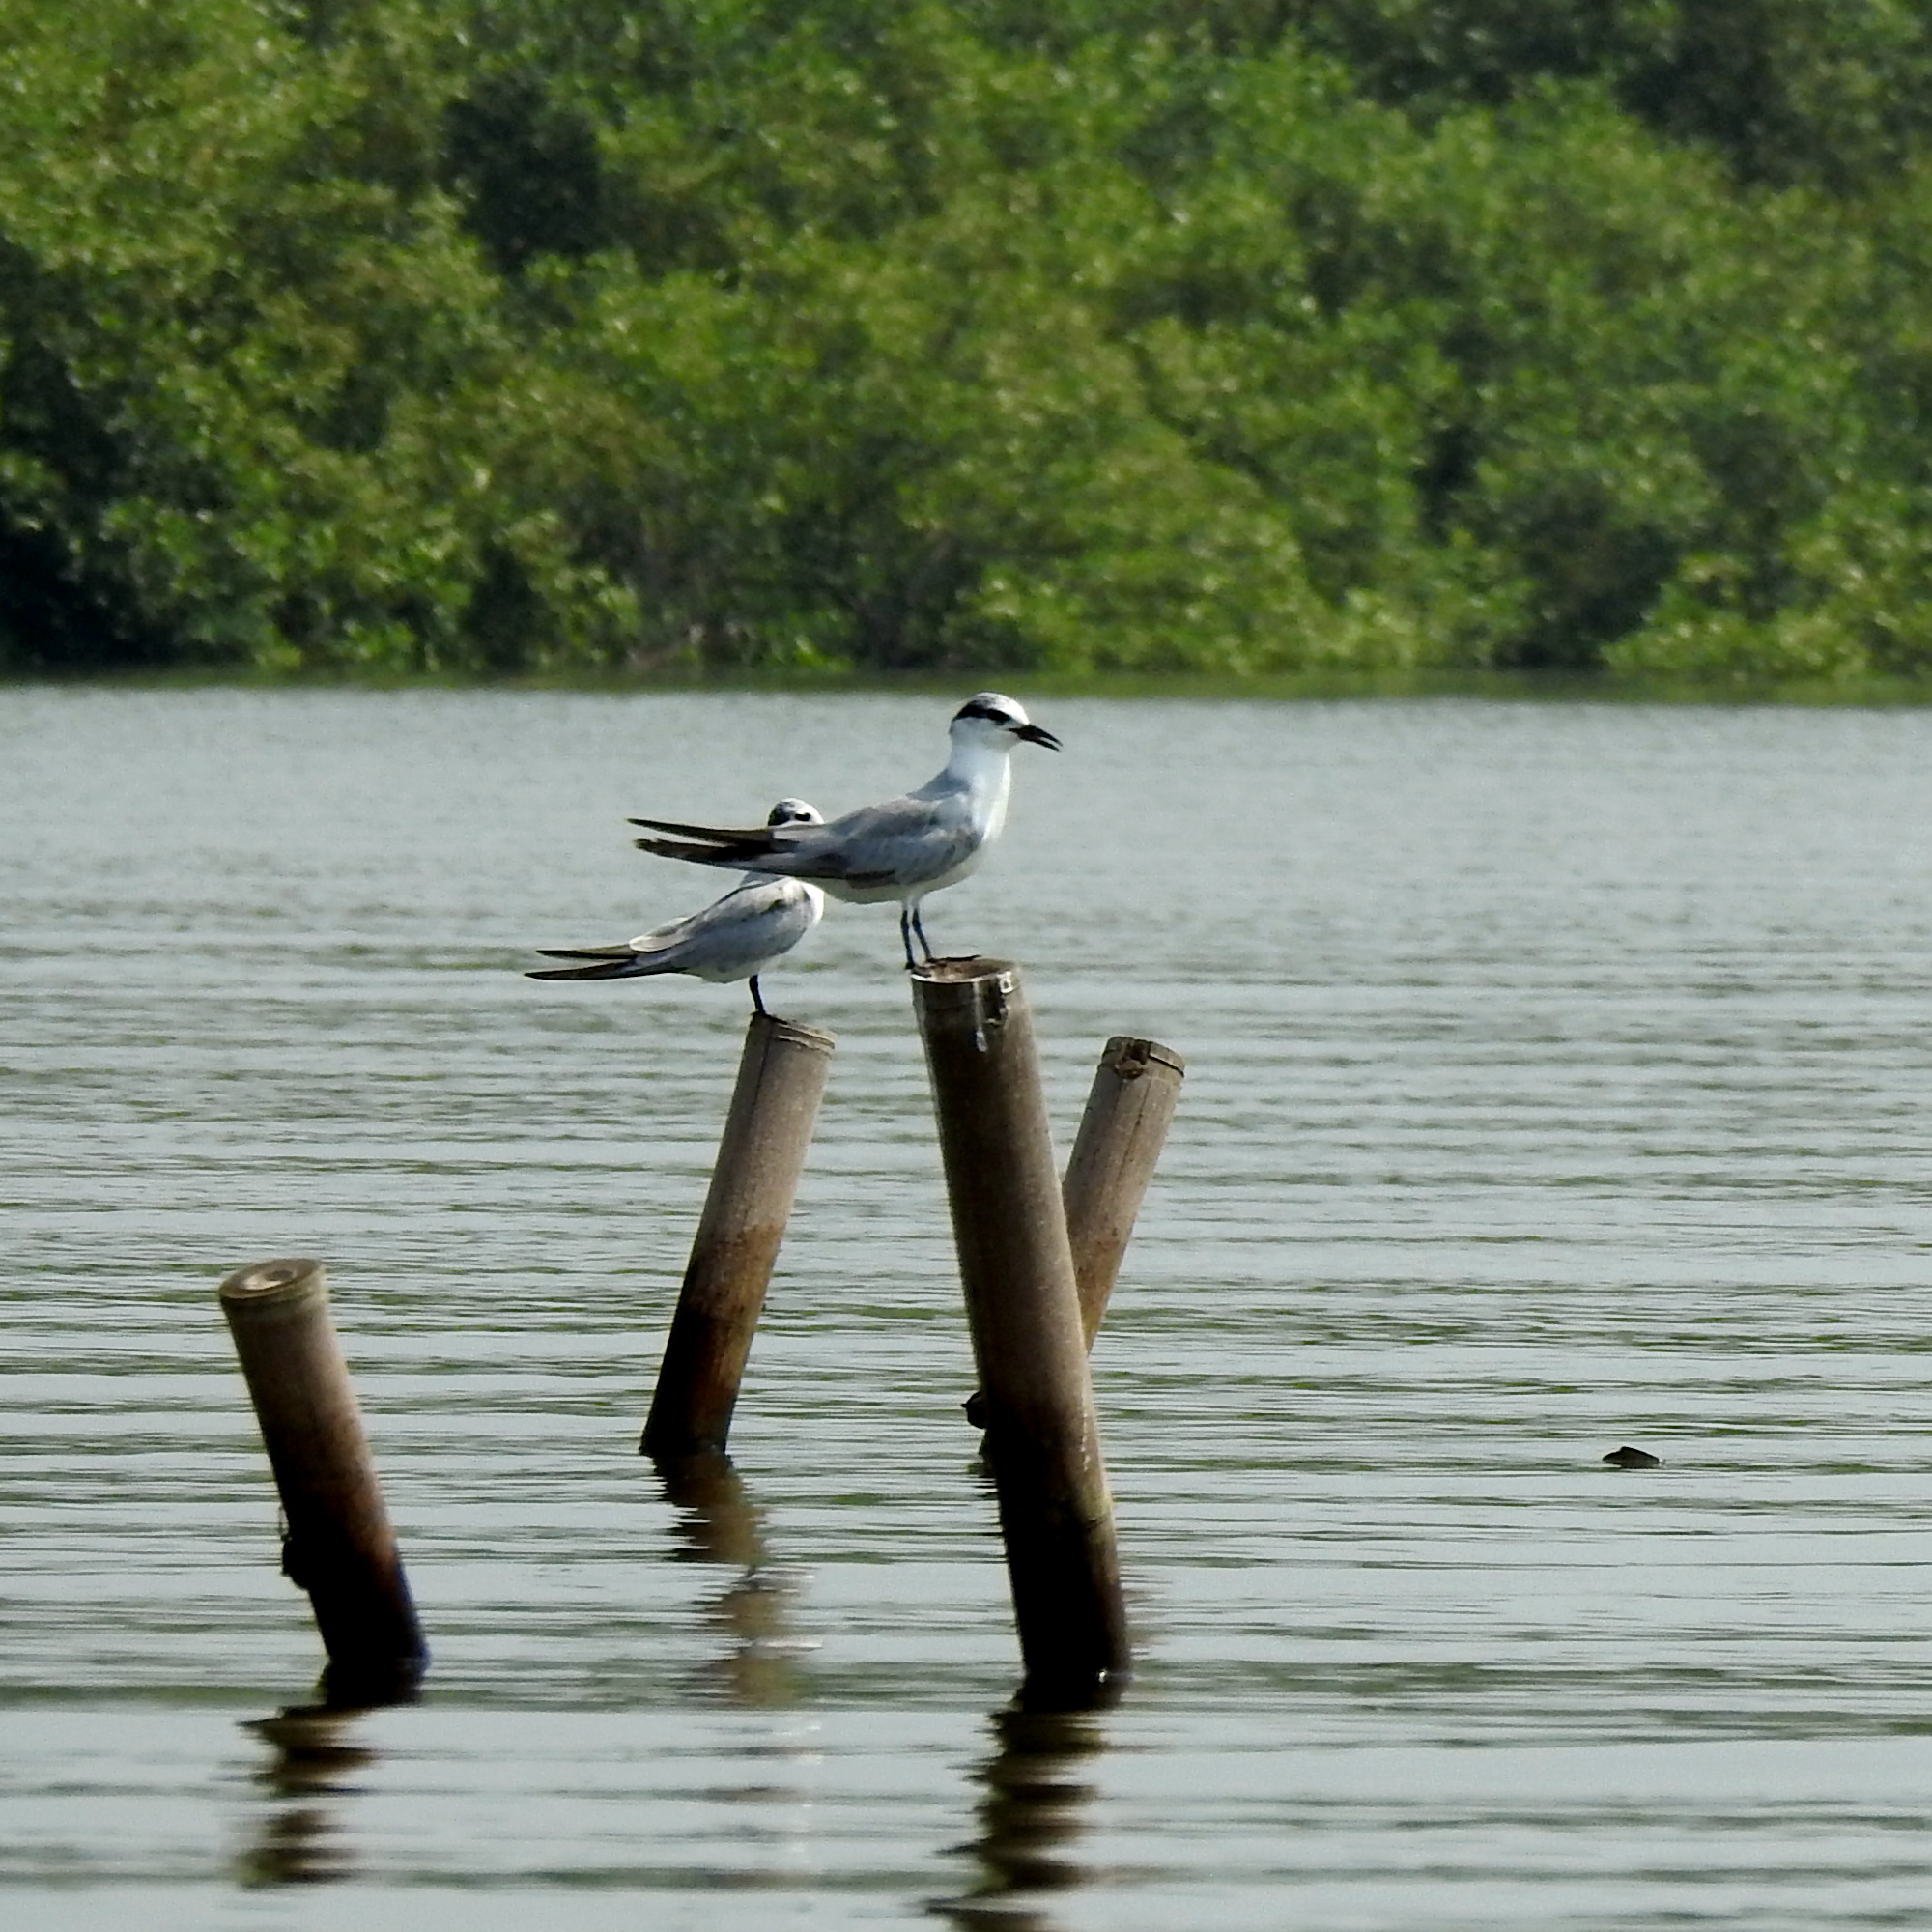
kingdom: Animalia
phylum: Chordata
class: Aves
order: Charadriiformes
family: Laridae
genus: Chlidonias
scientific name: Chlidonias hybrida
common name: Whiskered tern
